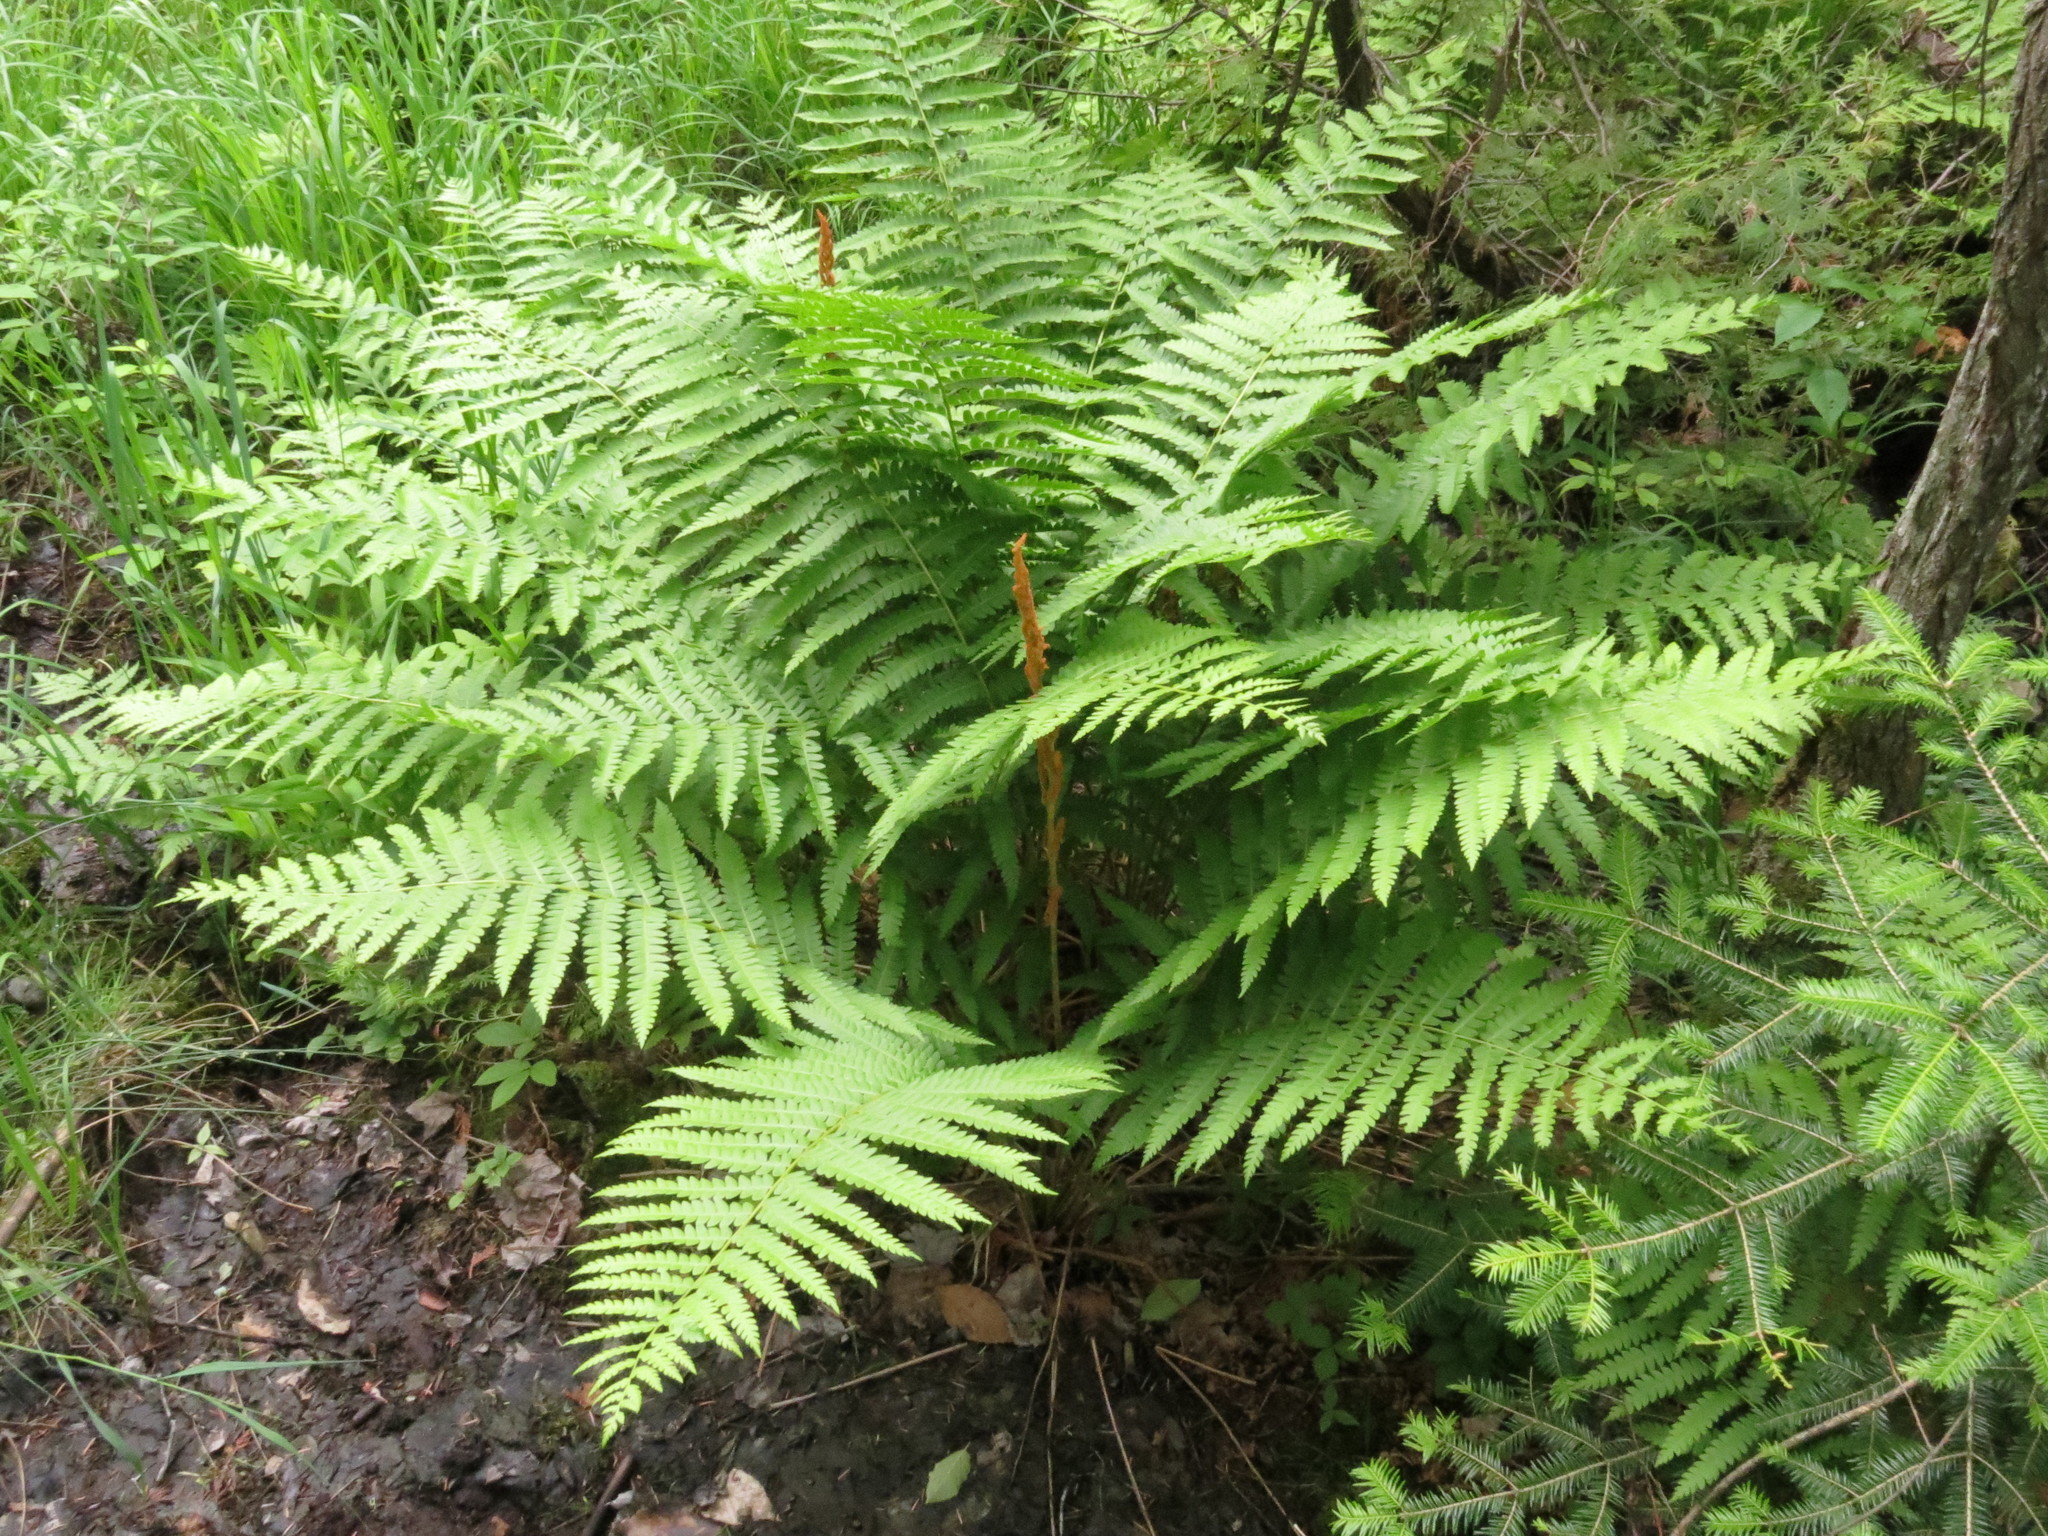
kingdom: Plantae
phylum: Tracheophyta
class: Polypodiopsida
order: Osmundales
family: Osmundaceae
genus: Osmundastrum
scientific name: Osmundastrum cinnamomeum
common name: Cinnamon fern
